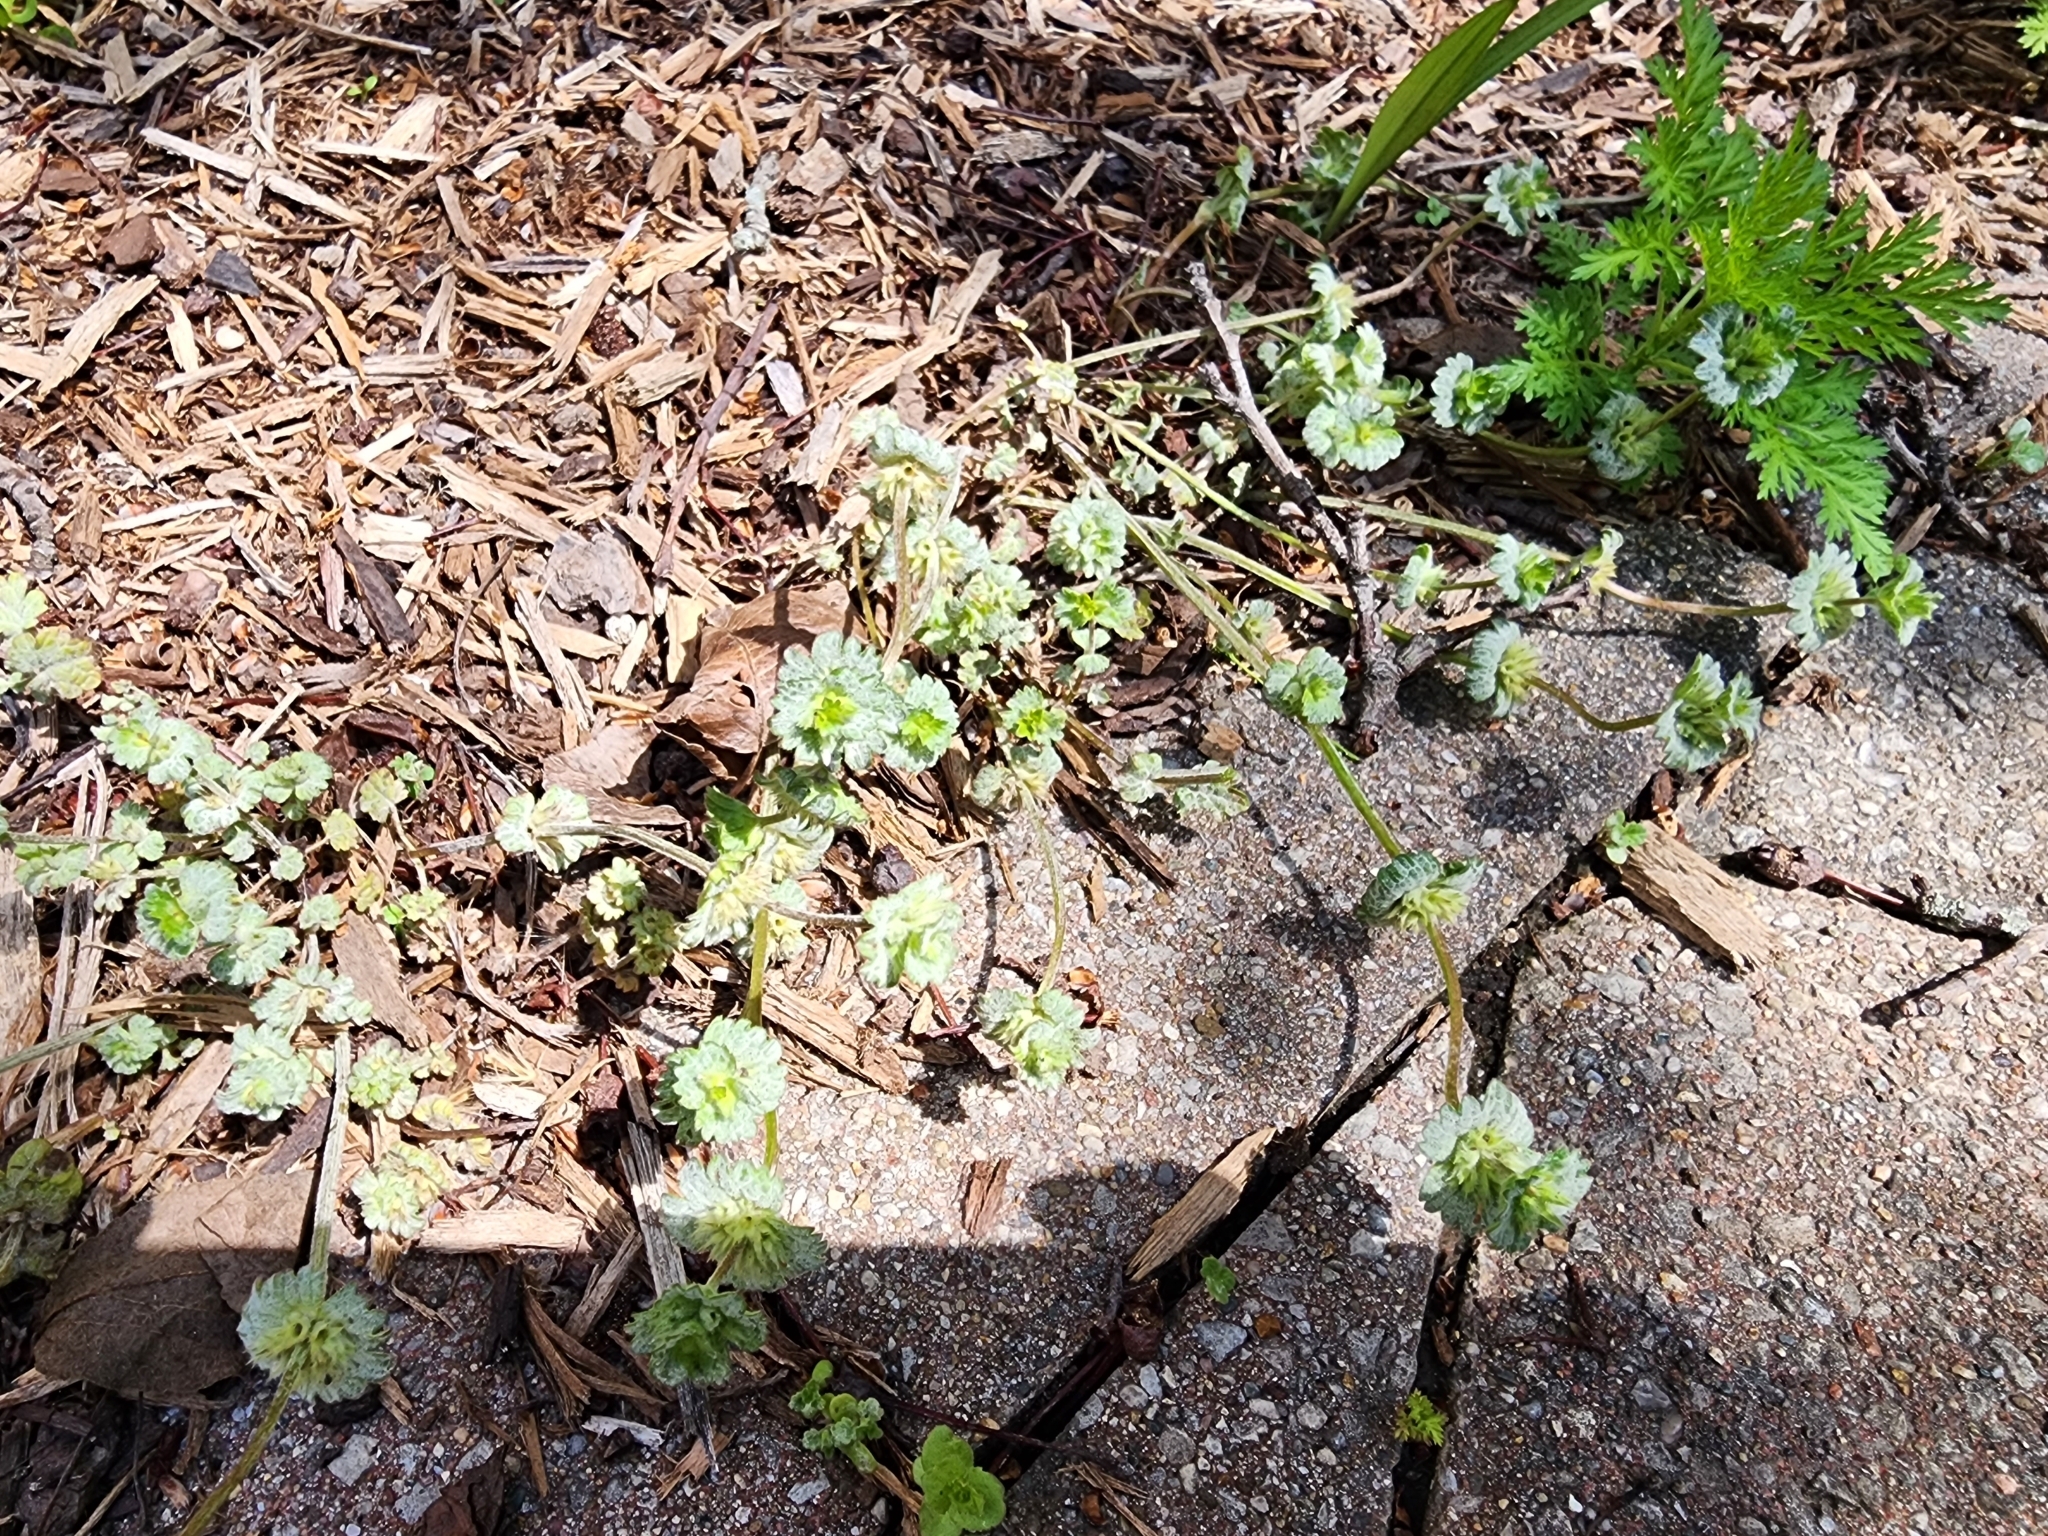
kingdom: Plantae
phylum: Tracheophyta
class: Magnoliopsida
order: Lamiales
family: Lamiaceae
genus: Lamium
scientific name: Lamium amplexicaule
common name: Henbit dead-nettle
